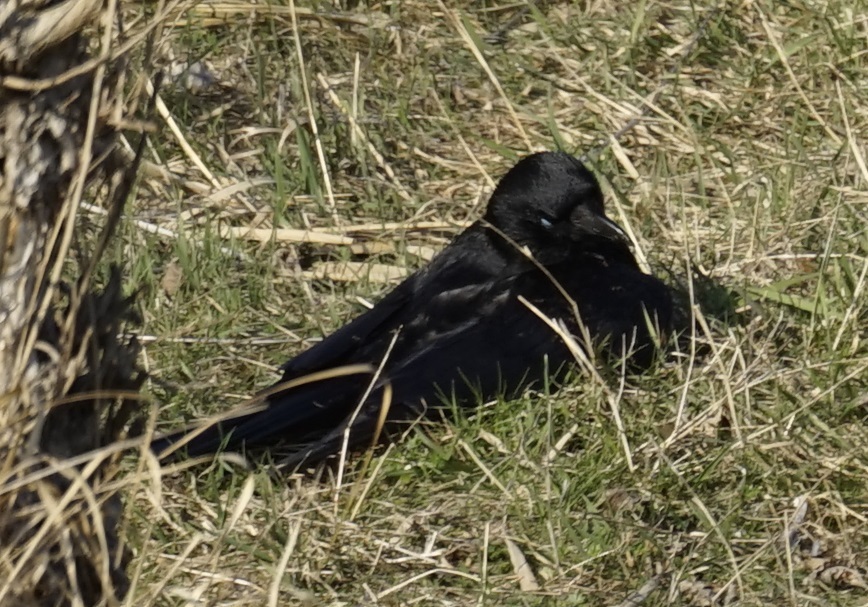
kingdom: Animalia
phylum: Chordata
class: Aves
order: Passeriformes
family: Corvidae
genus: Corvus
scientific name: Corvus corone
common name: Carrion crow
